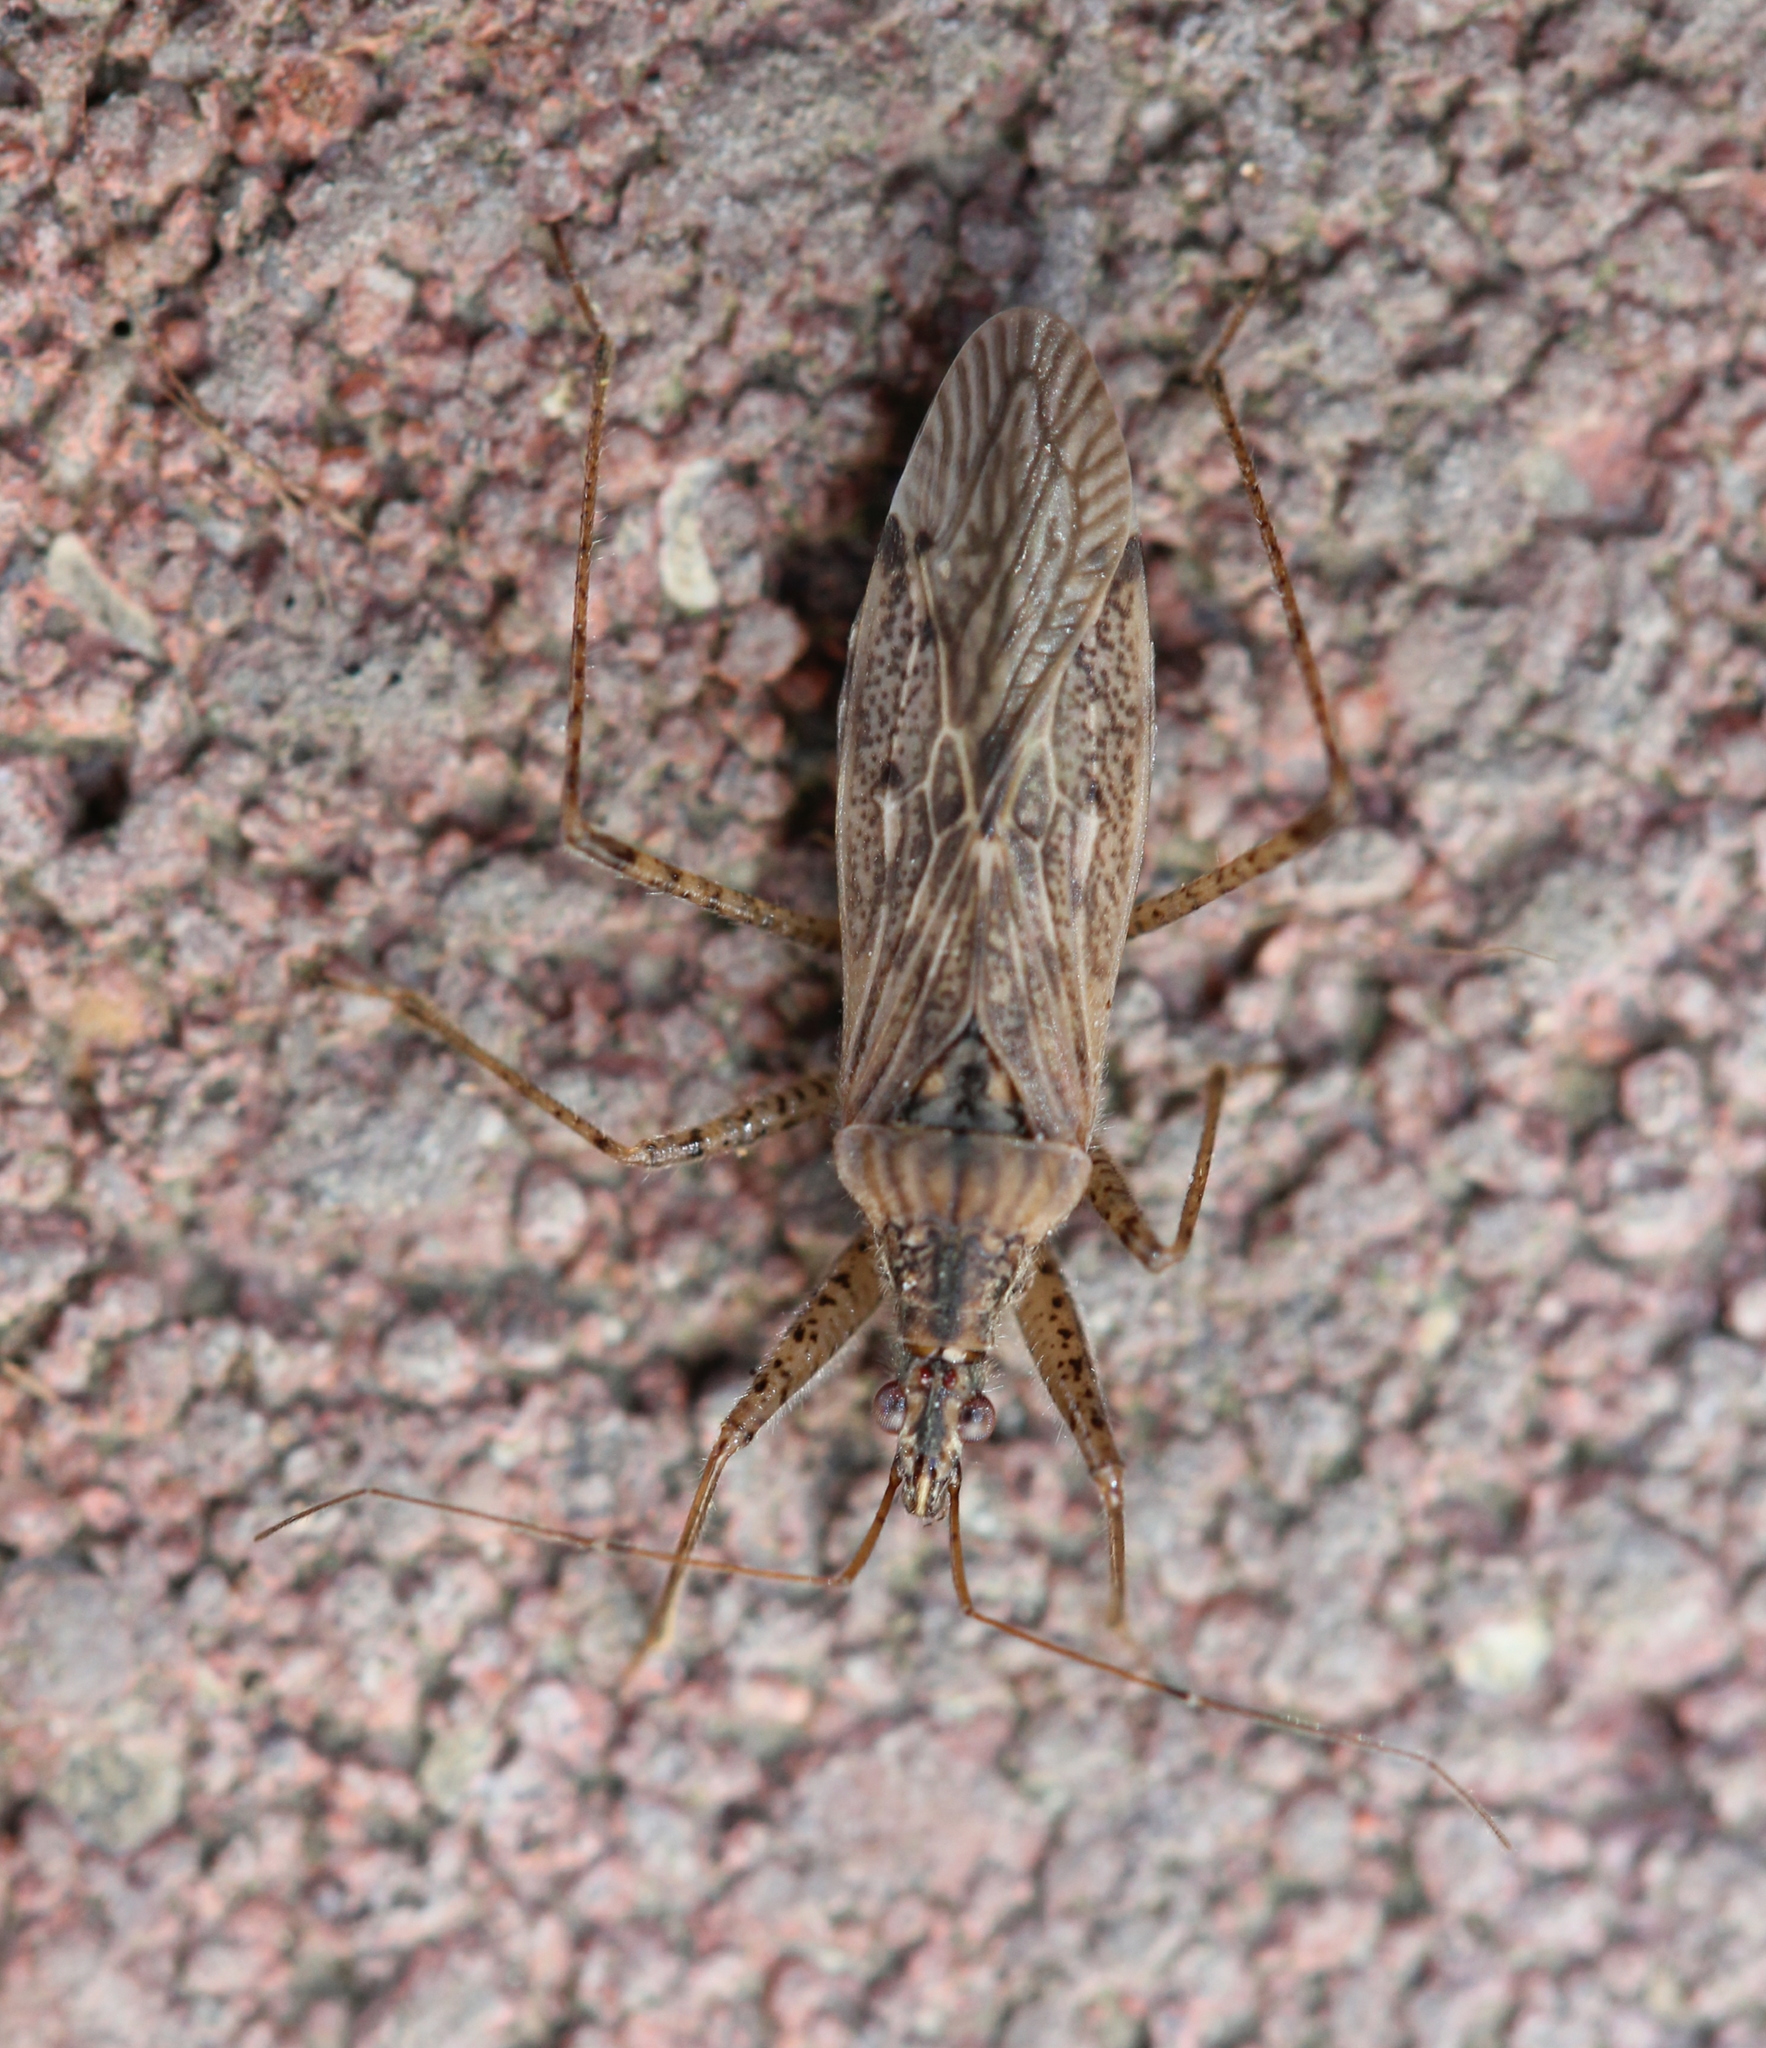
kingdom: Animalia
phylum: Arthropoda
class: Insecta
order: Hemiptera
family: Nabidae
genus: Nabis
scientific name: Nabis roseipennis
